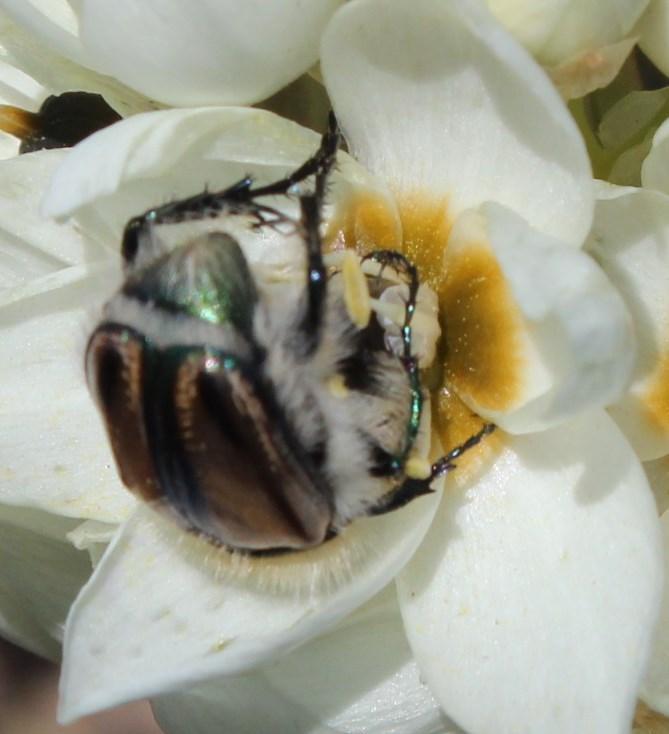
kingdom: Animalia
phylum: Arthropoda
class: Insecta
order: Coleoptera
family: Scarabaeidae
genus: Stegopterus
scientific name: Stegopterus vittatus
